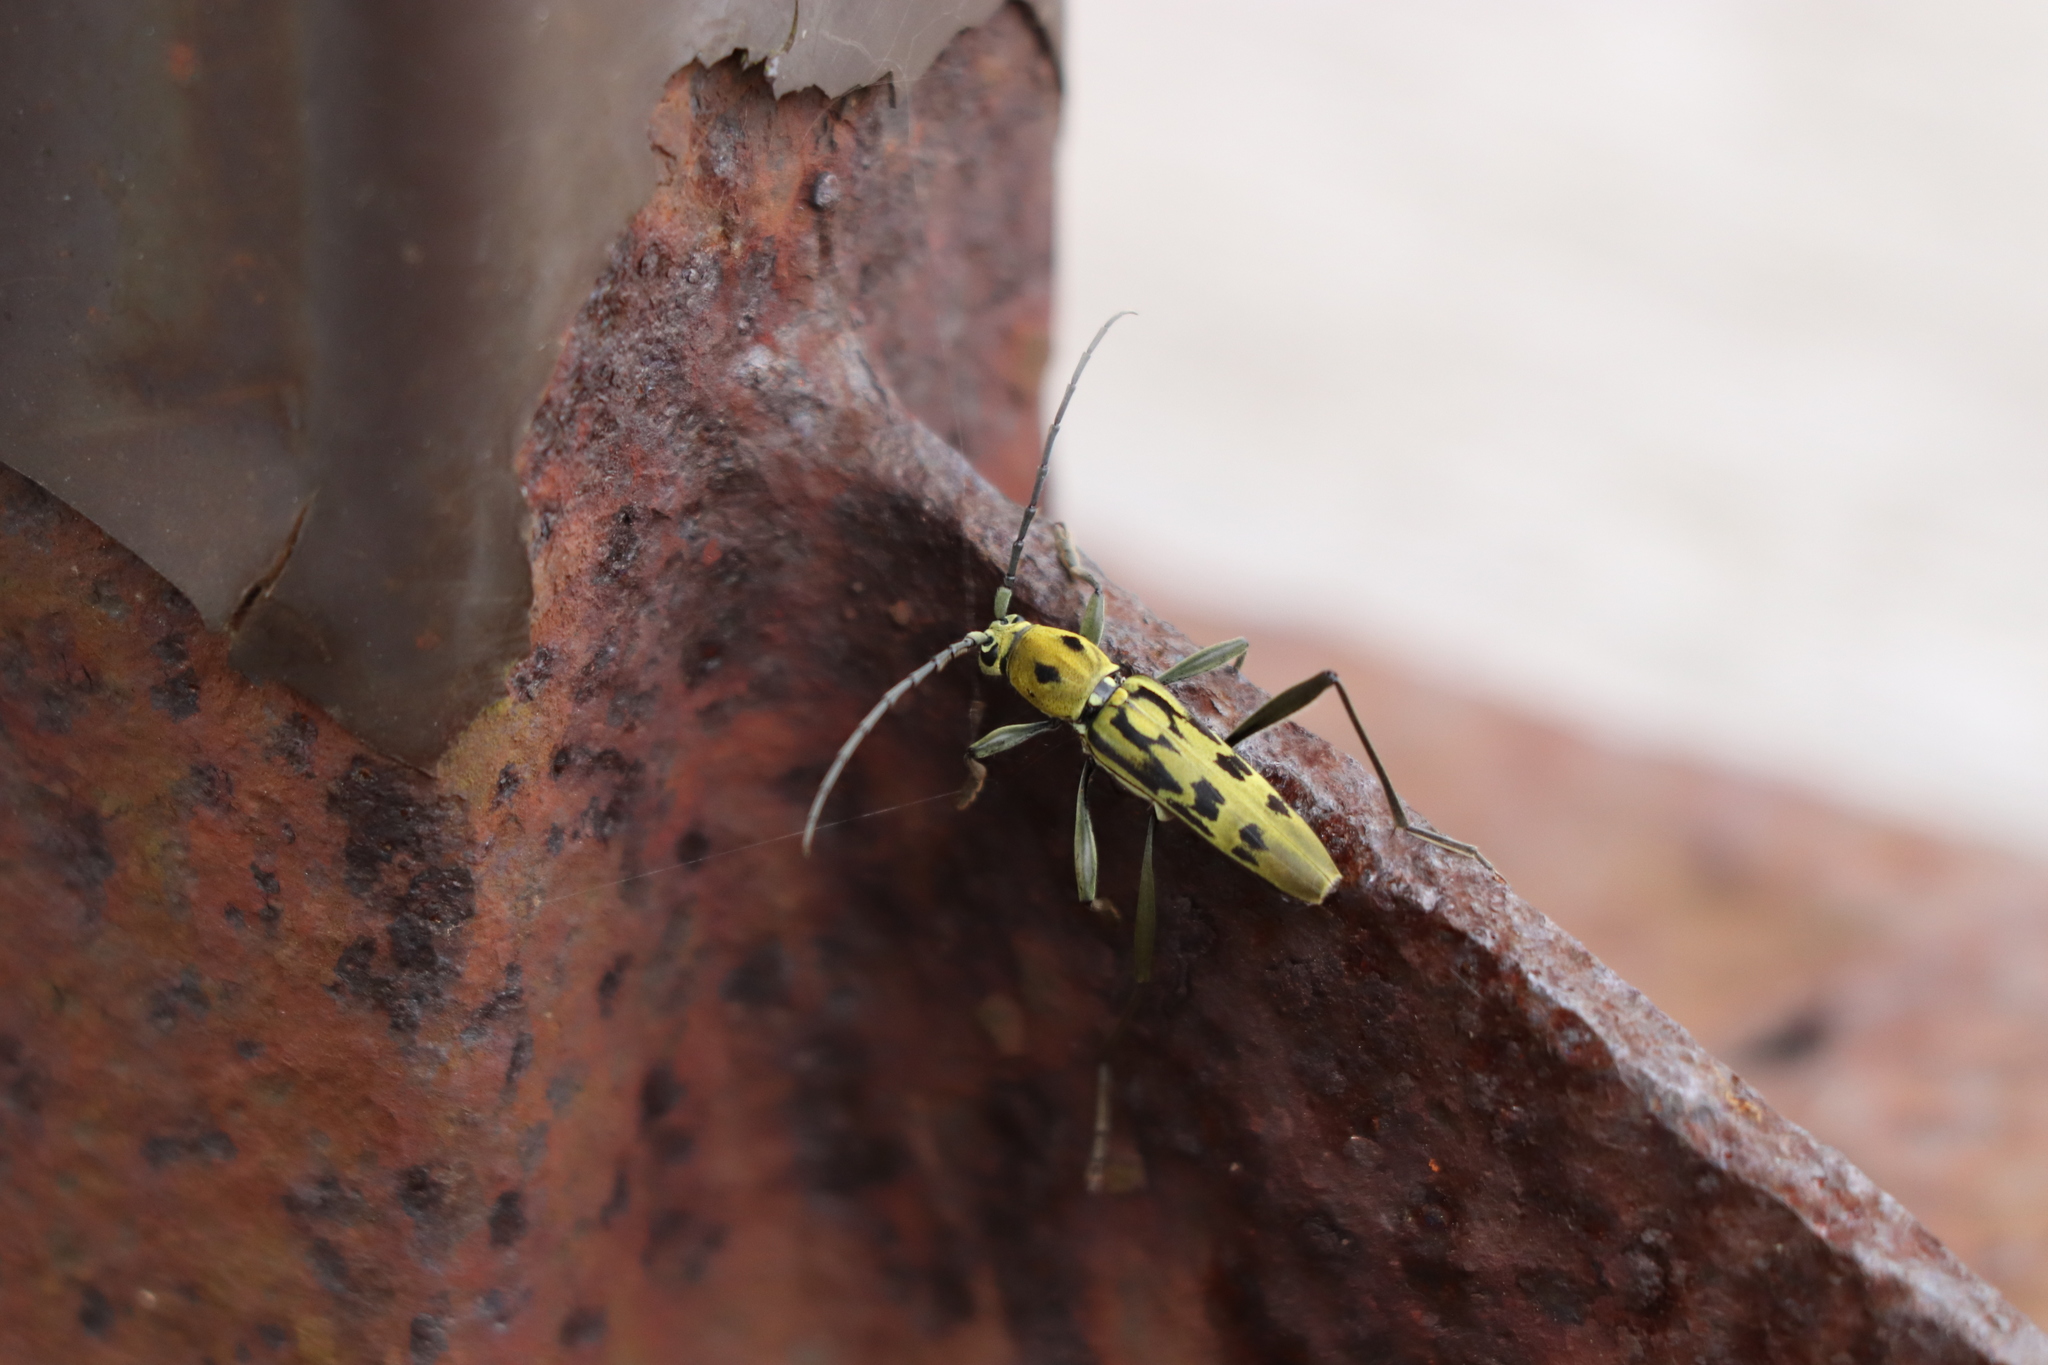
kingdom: Animalia
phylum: Arthropoda
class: Insecta
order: Coleoptera
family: Cerambycidae
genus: Demonax
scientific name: Demonax
